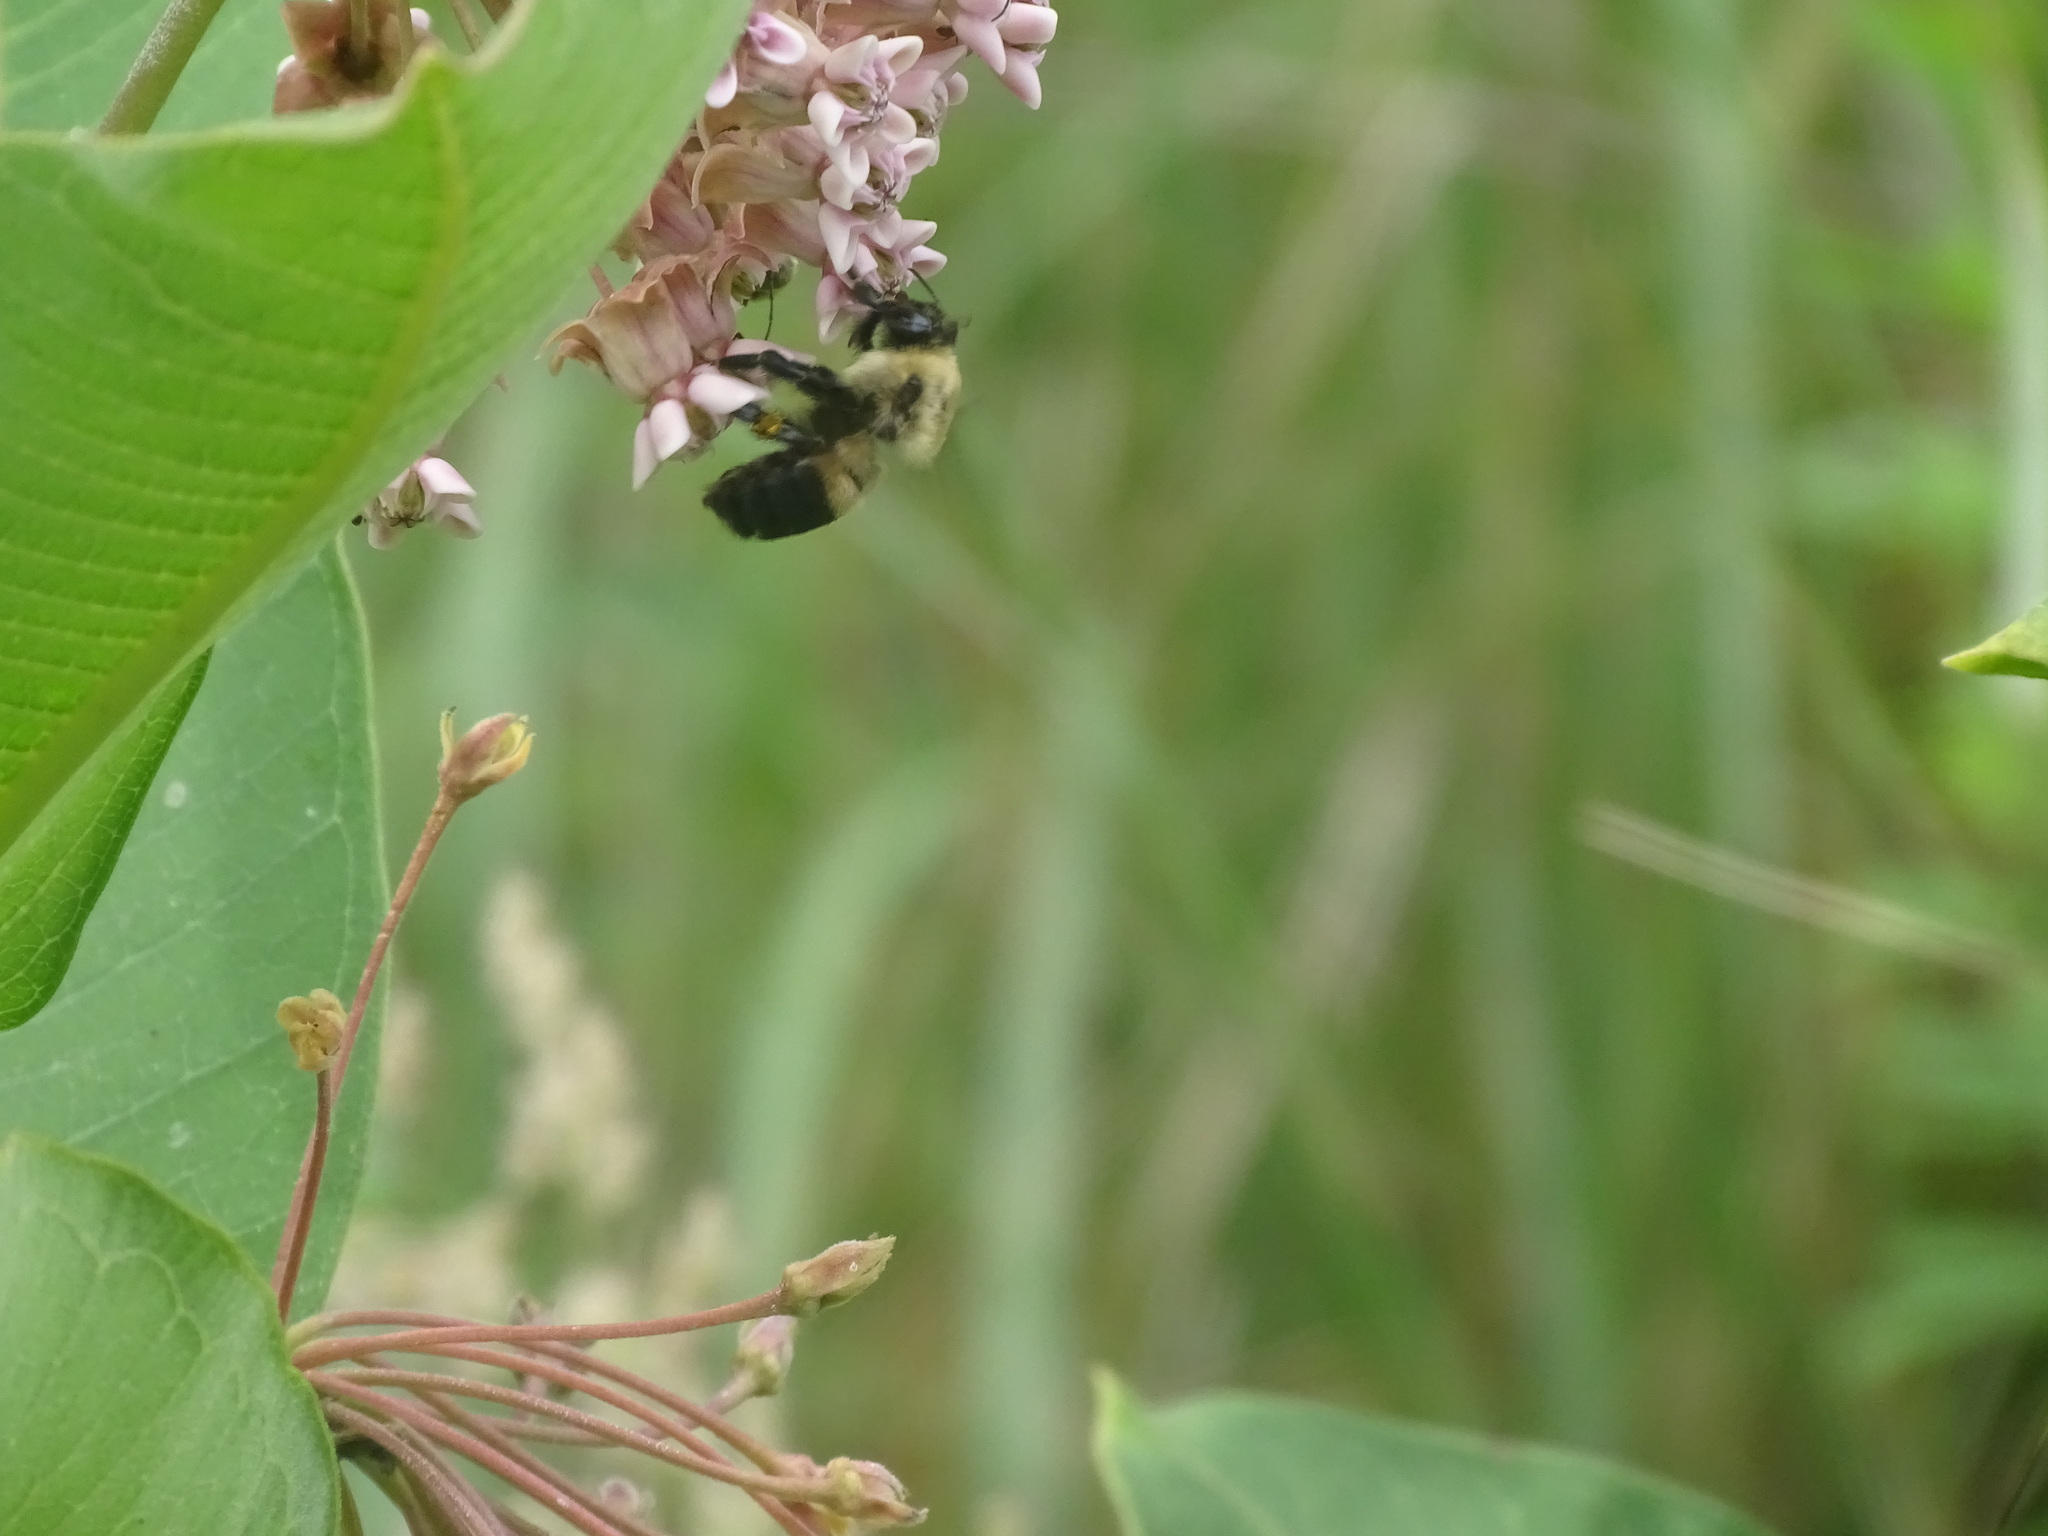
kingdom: Animalia
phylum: Arthropoda
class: Insecta
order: Hymenoptera
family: Apidae
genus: Bombus
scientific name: Bombus griseocollis
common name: Brown-belted bumble bee
